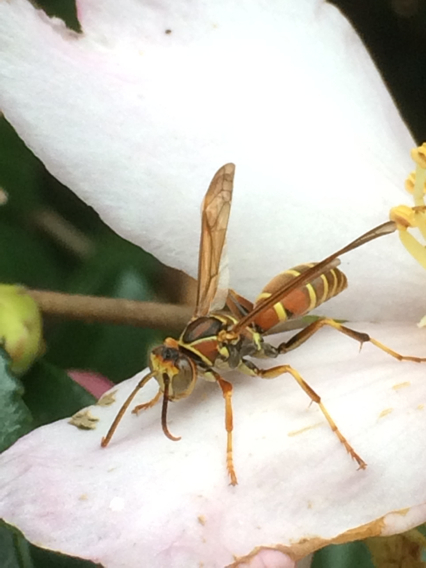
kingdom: Animalia
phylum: Arthropoda
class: Insecta
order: Hymenoptera
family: Eumenidae
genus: Polistes
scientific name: Polistes dorsalis
